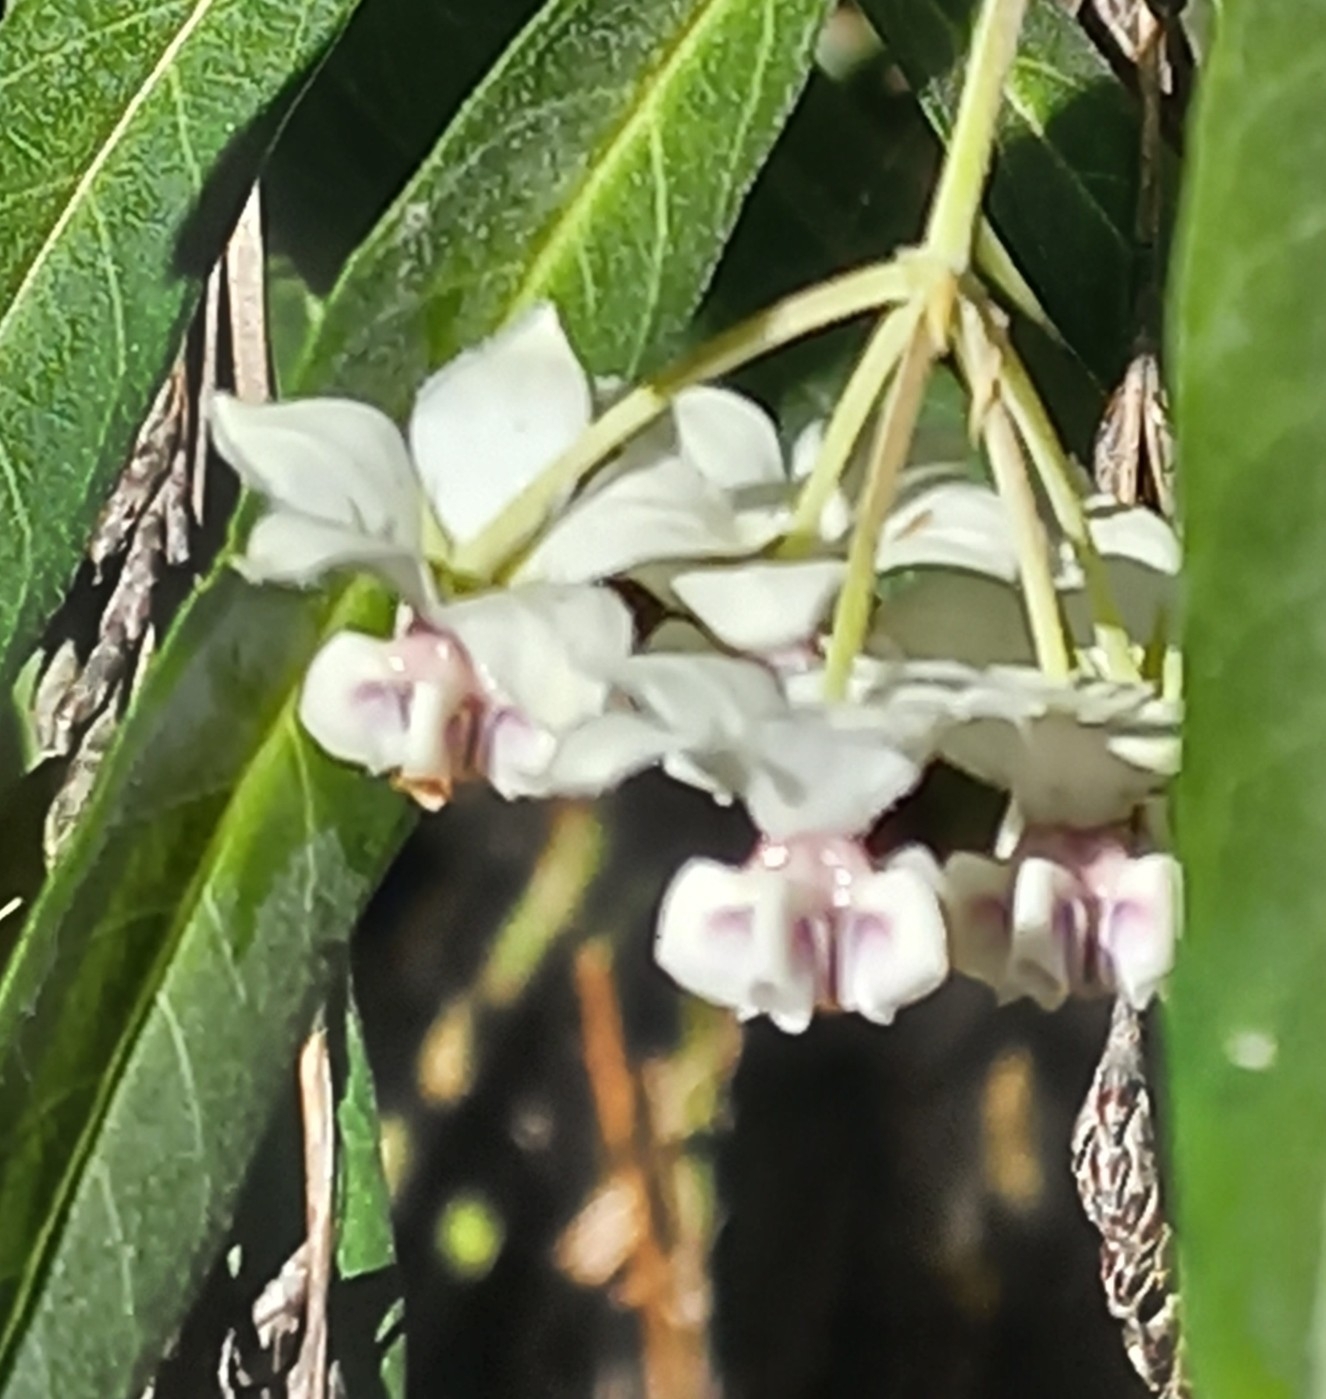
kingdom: Plantae
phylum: Tracheophyta
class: Magnoliopsida
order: Gentianales
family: Apocynaceae
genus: Gomphocarpus
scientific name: Gomphocarpus physocarpus
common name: Balloon cotton bush
